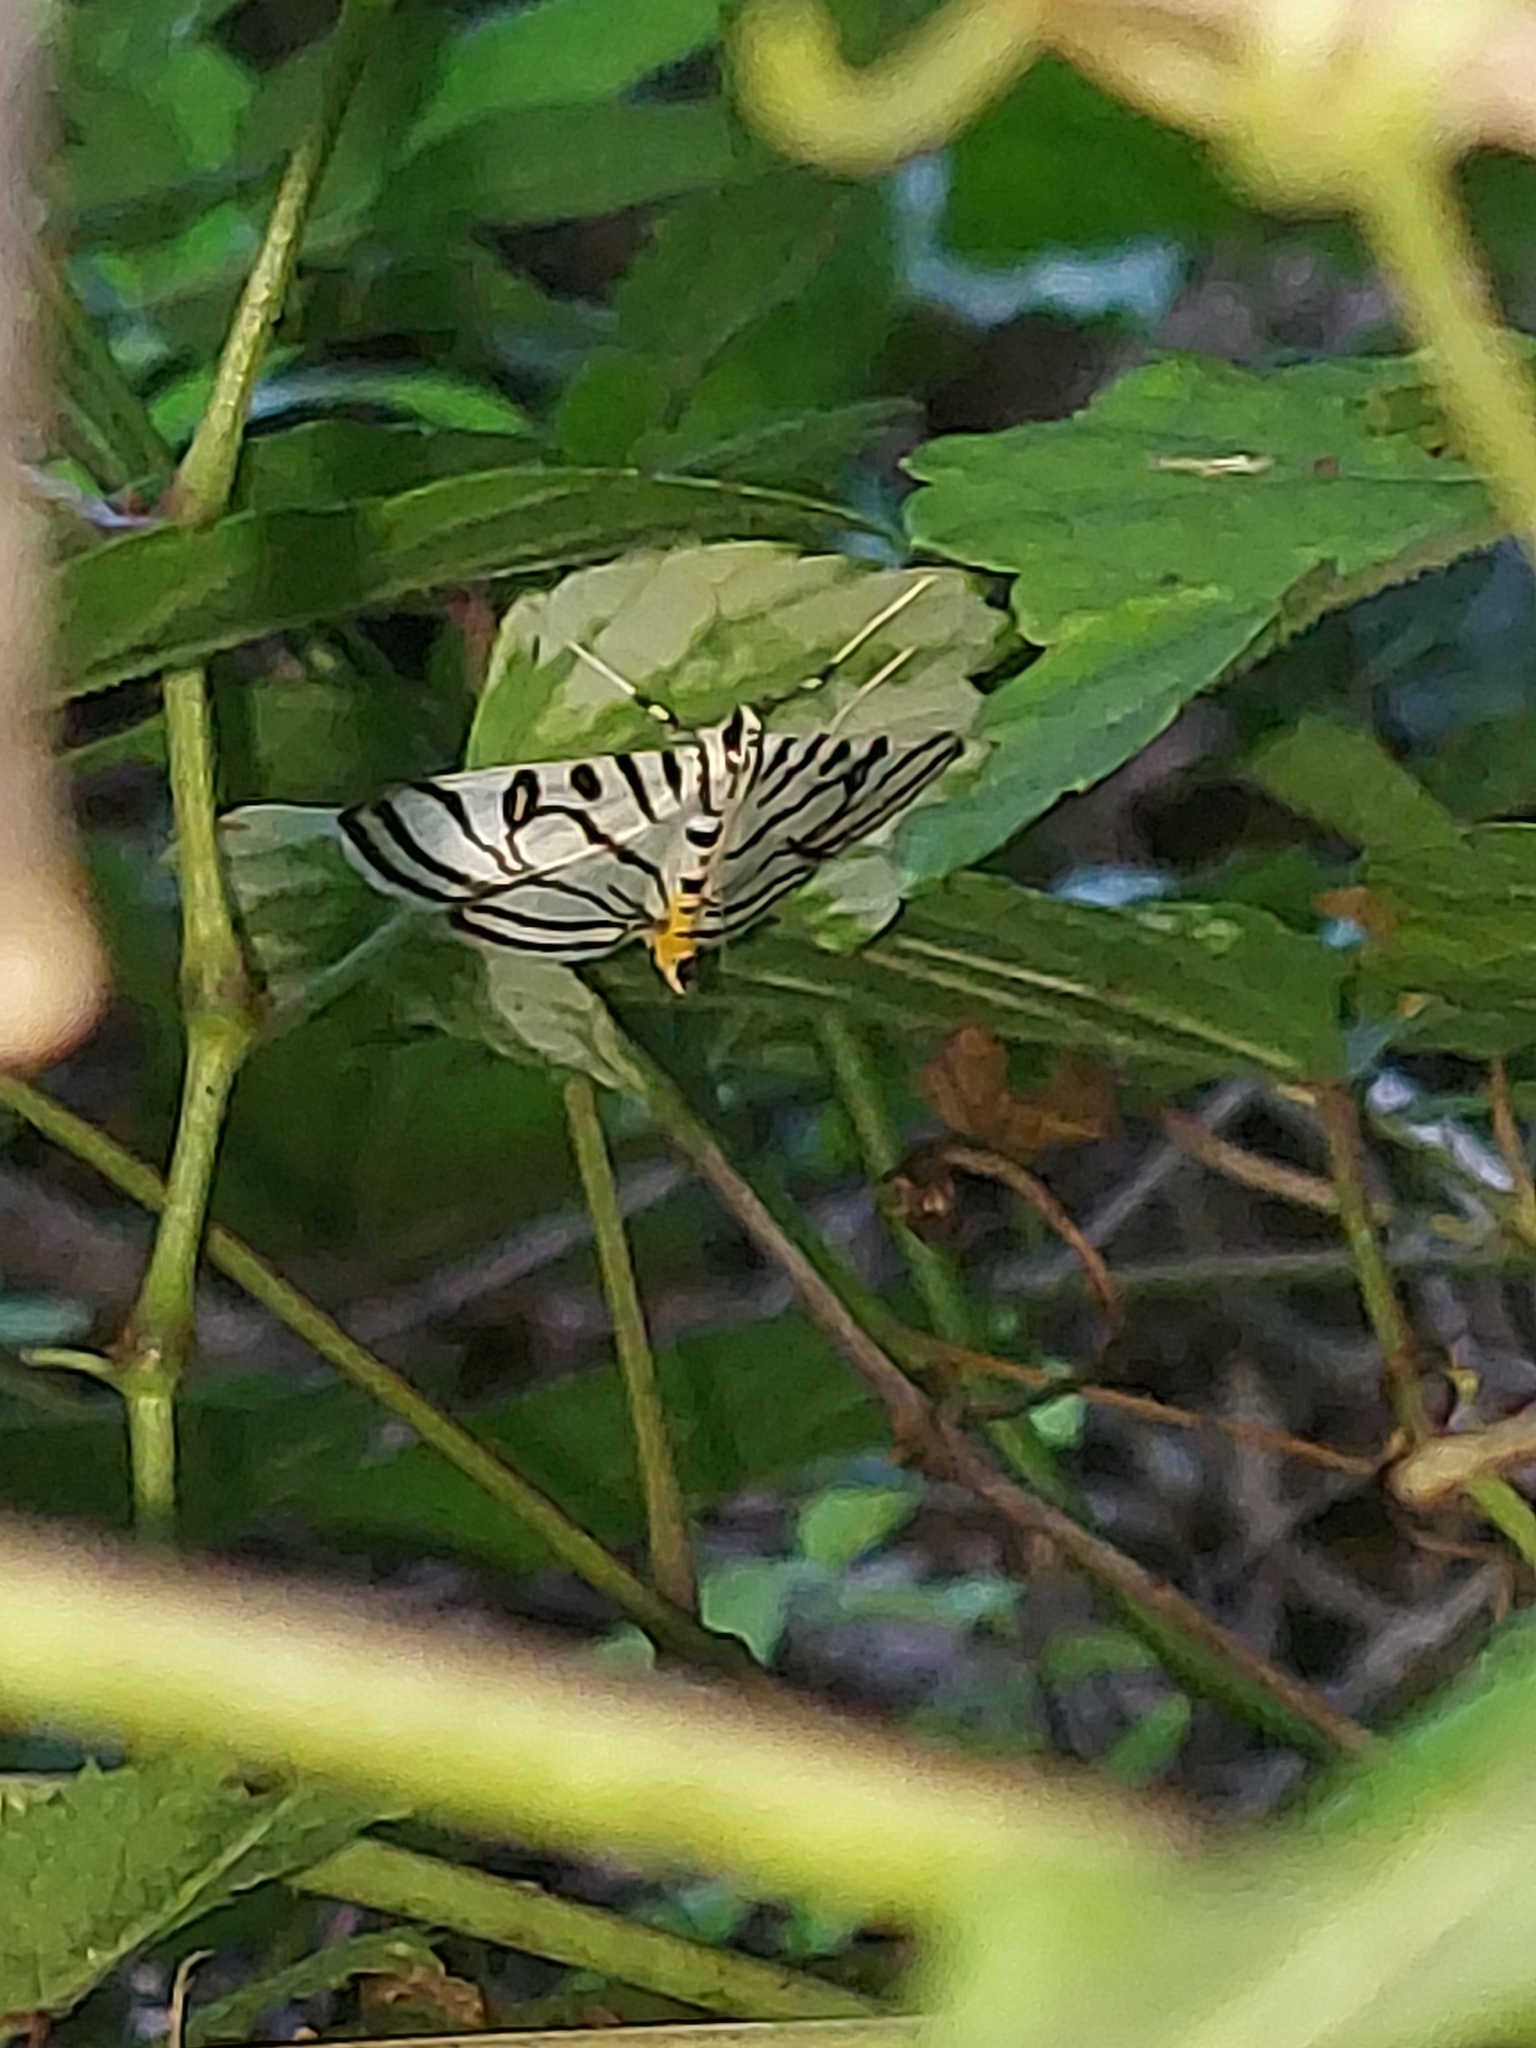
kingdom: Animalia
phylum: Arthropoda
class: Insecta
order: Lepidoptera
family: Crambidae
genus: Conchylodes
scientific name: Conchylodes ovulalis
